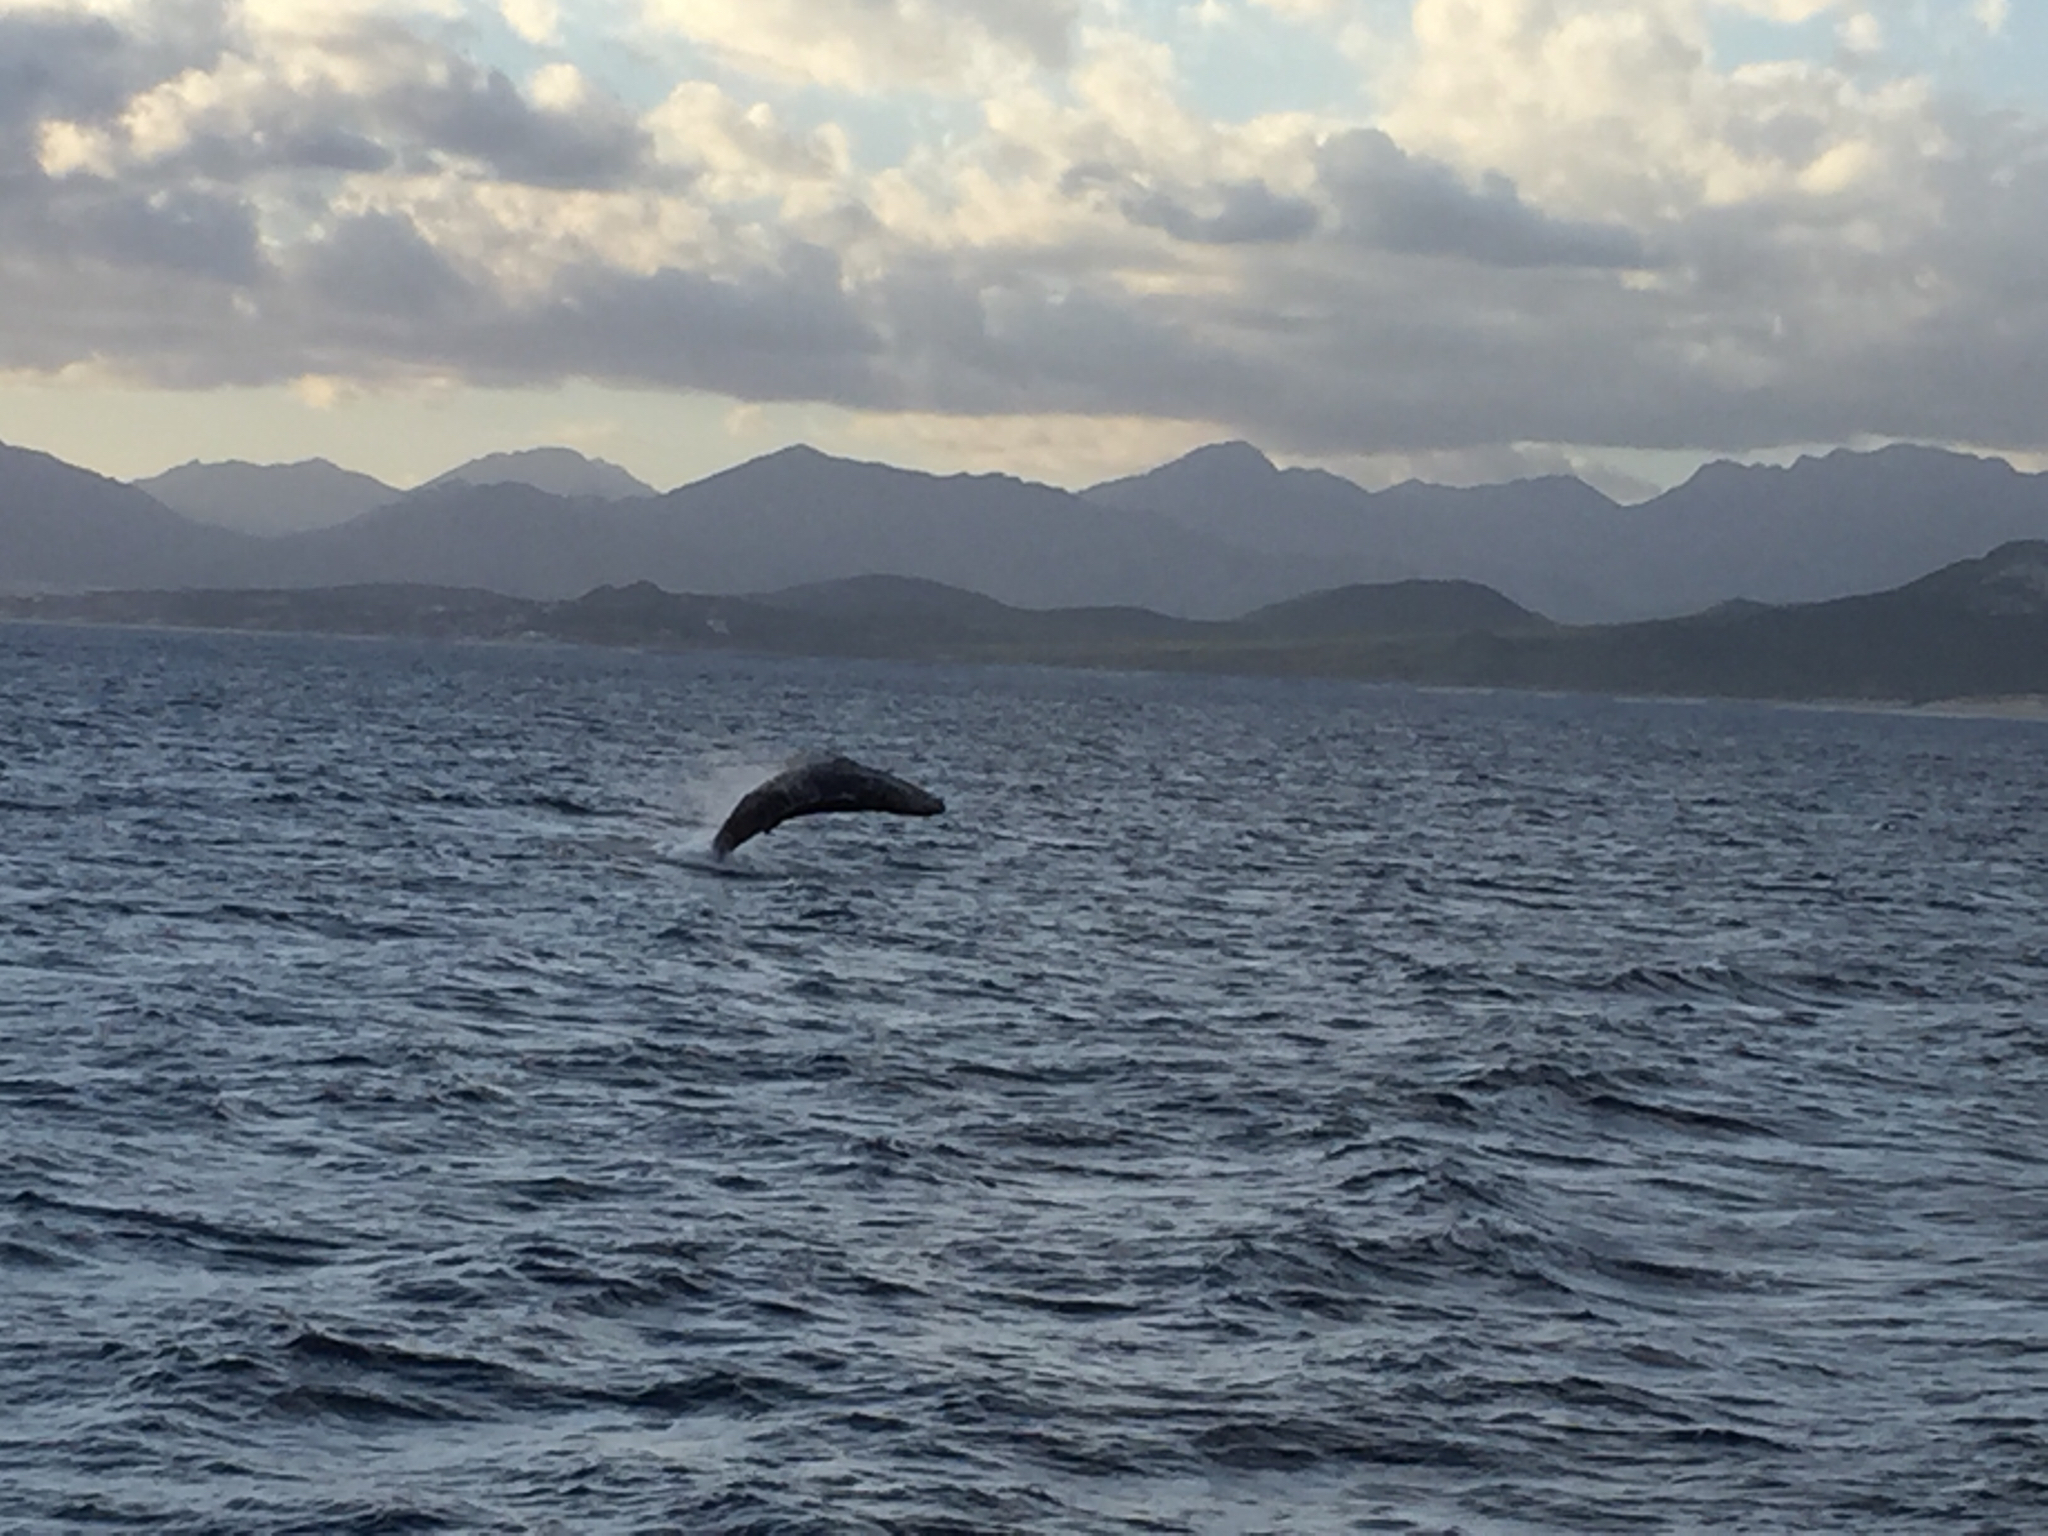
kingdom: Animalia
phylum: Chordata
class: Mammalia
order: Cetacea
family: Balaenopteridae
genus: Megaptera
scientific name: Megaptera novaeangliae
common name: Humpback whale
